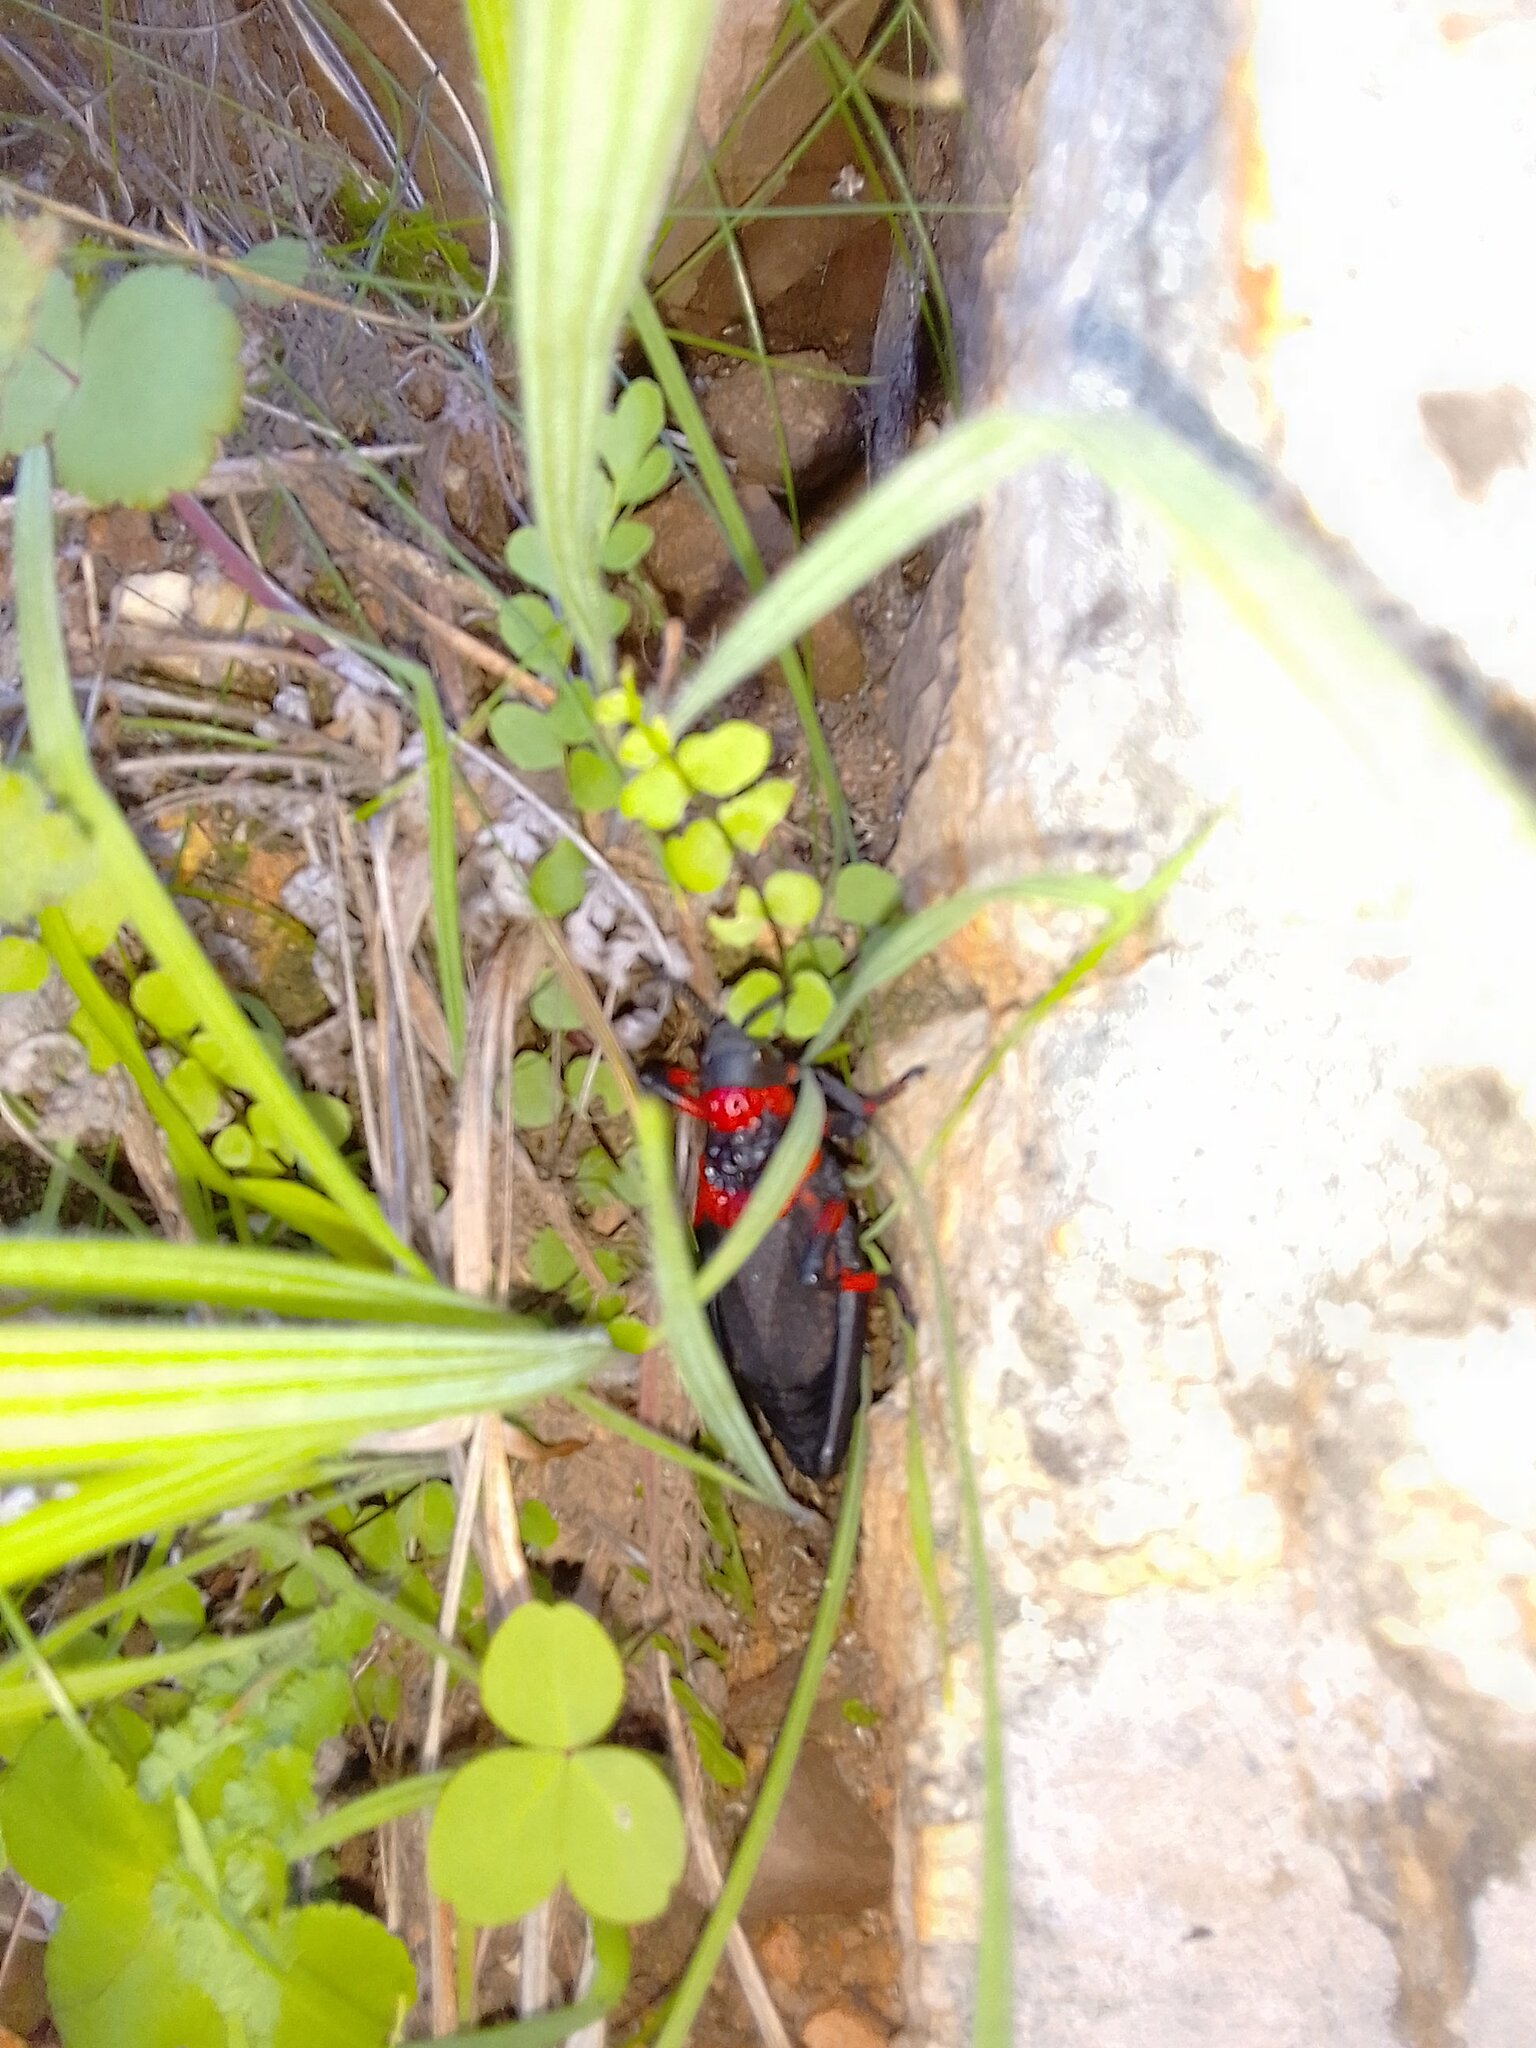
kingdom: Animalia
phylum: Arthropoda
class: Insecta
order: Orthoptera
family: Pyrgomorphidae
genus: Dictyophorus
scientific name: Dictyophorus spumans
